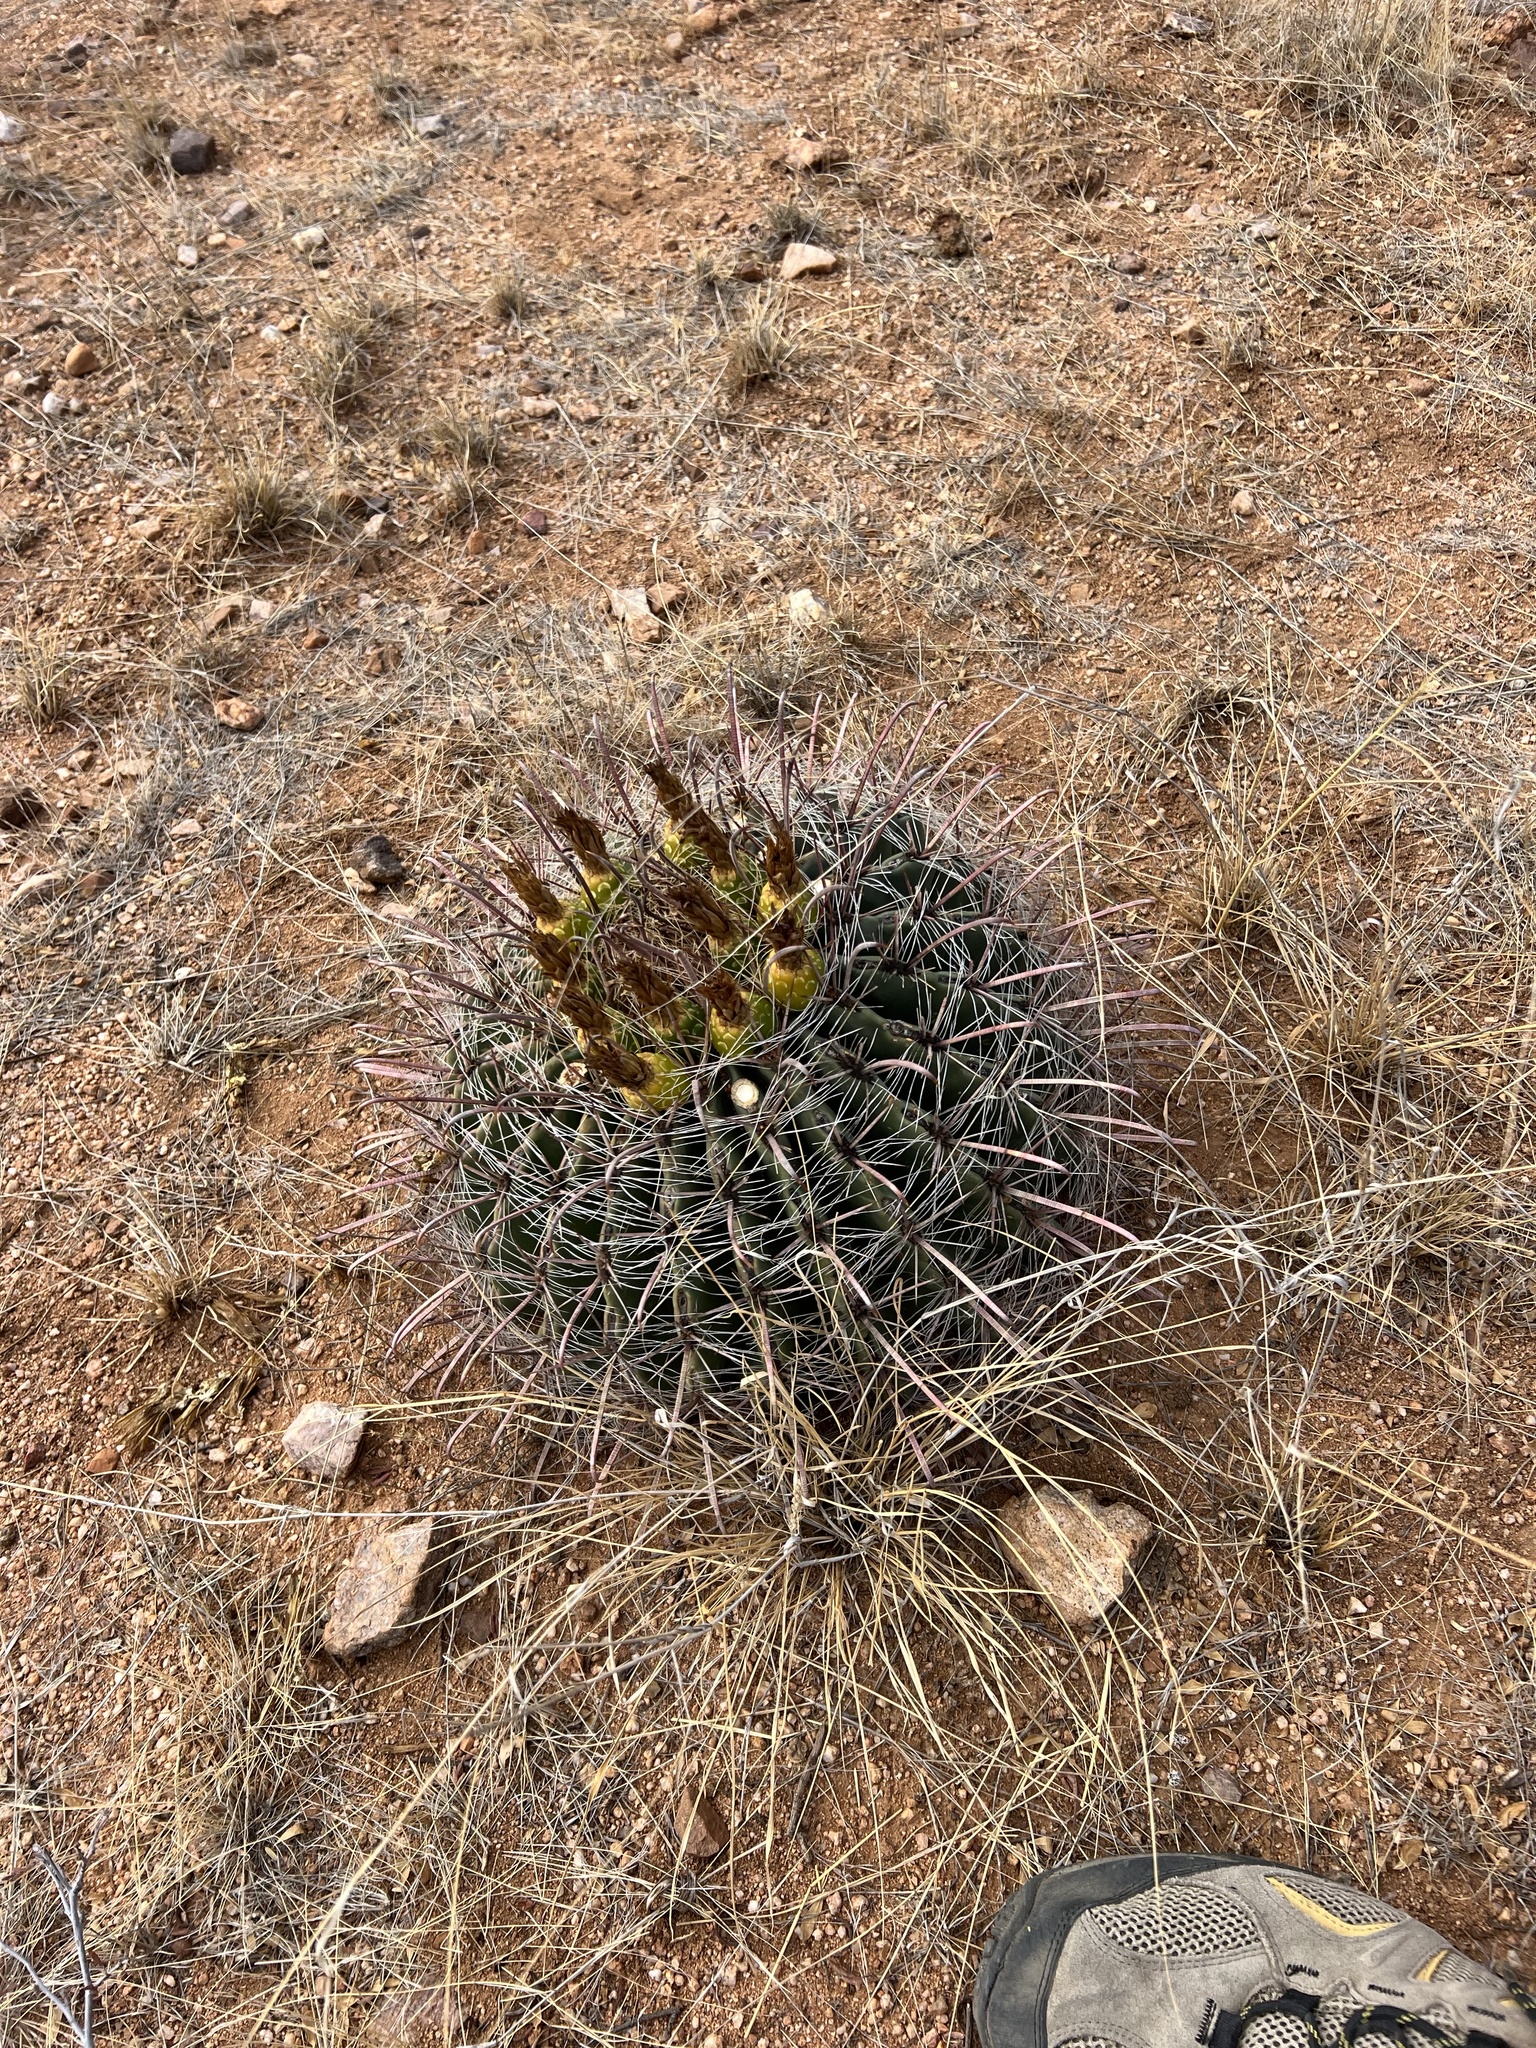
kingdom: Plantae
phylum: Tracheophyta
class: Magnoliopsida
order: Caryophyllales
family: Cactaceae
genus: Ferocactus
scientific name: Ferocactus wislizeni
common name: Candy barrel cactus
